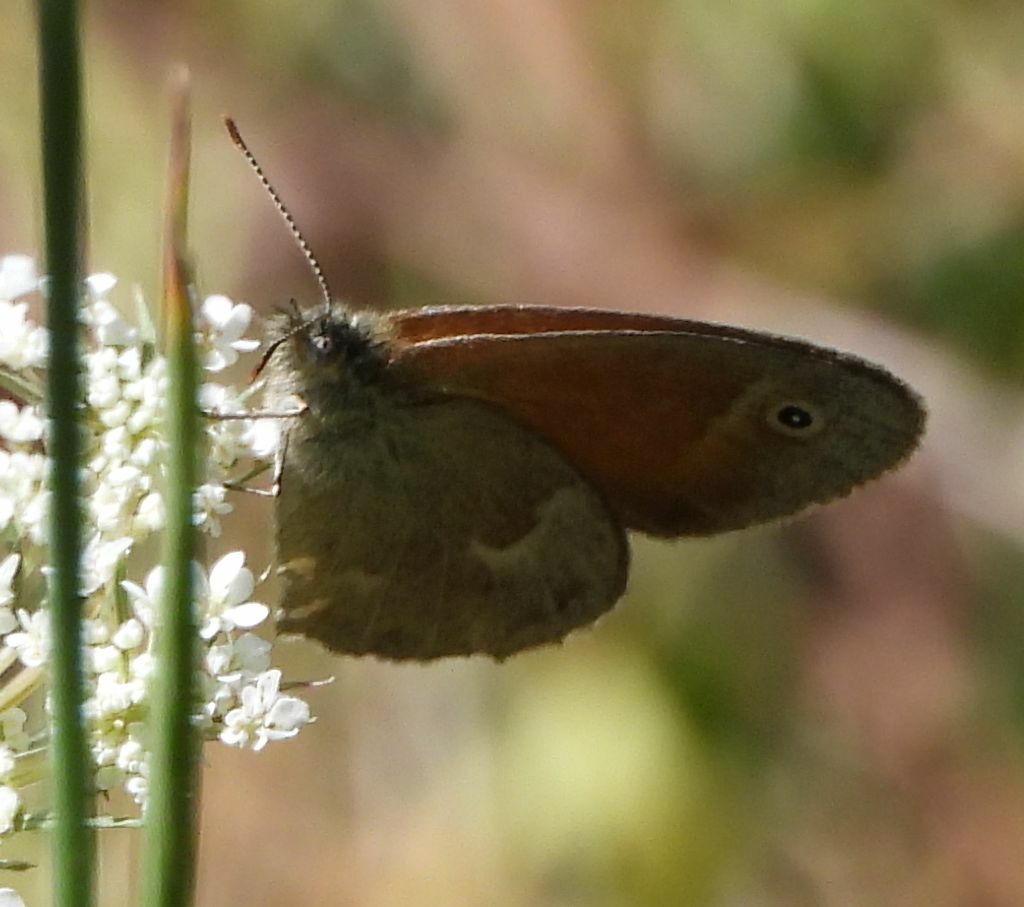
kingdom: Animalia
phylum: Arthropoda
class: Insecta
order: Lepidoptera
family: Nymphalidae
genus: Coenonympha
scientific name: Coenonympha california
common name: Common ringlet
